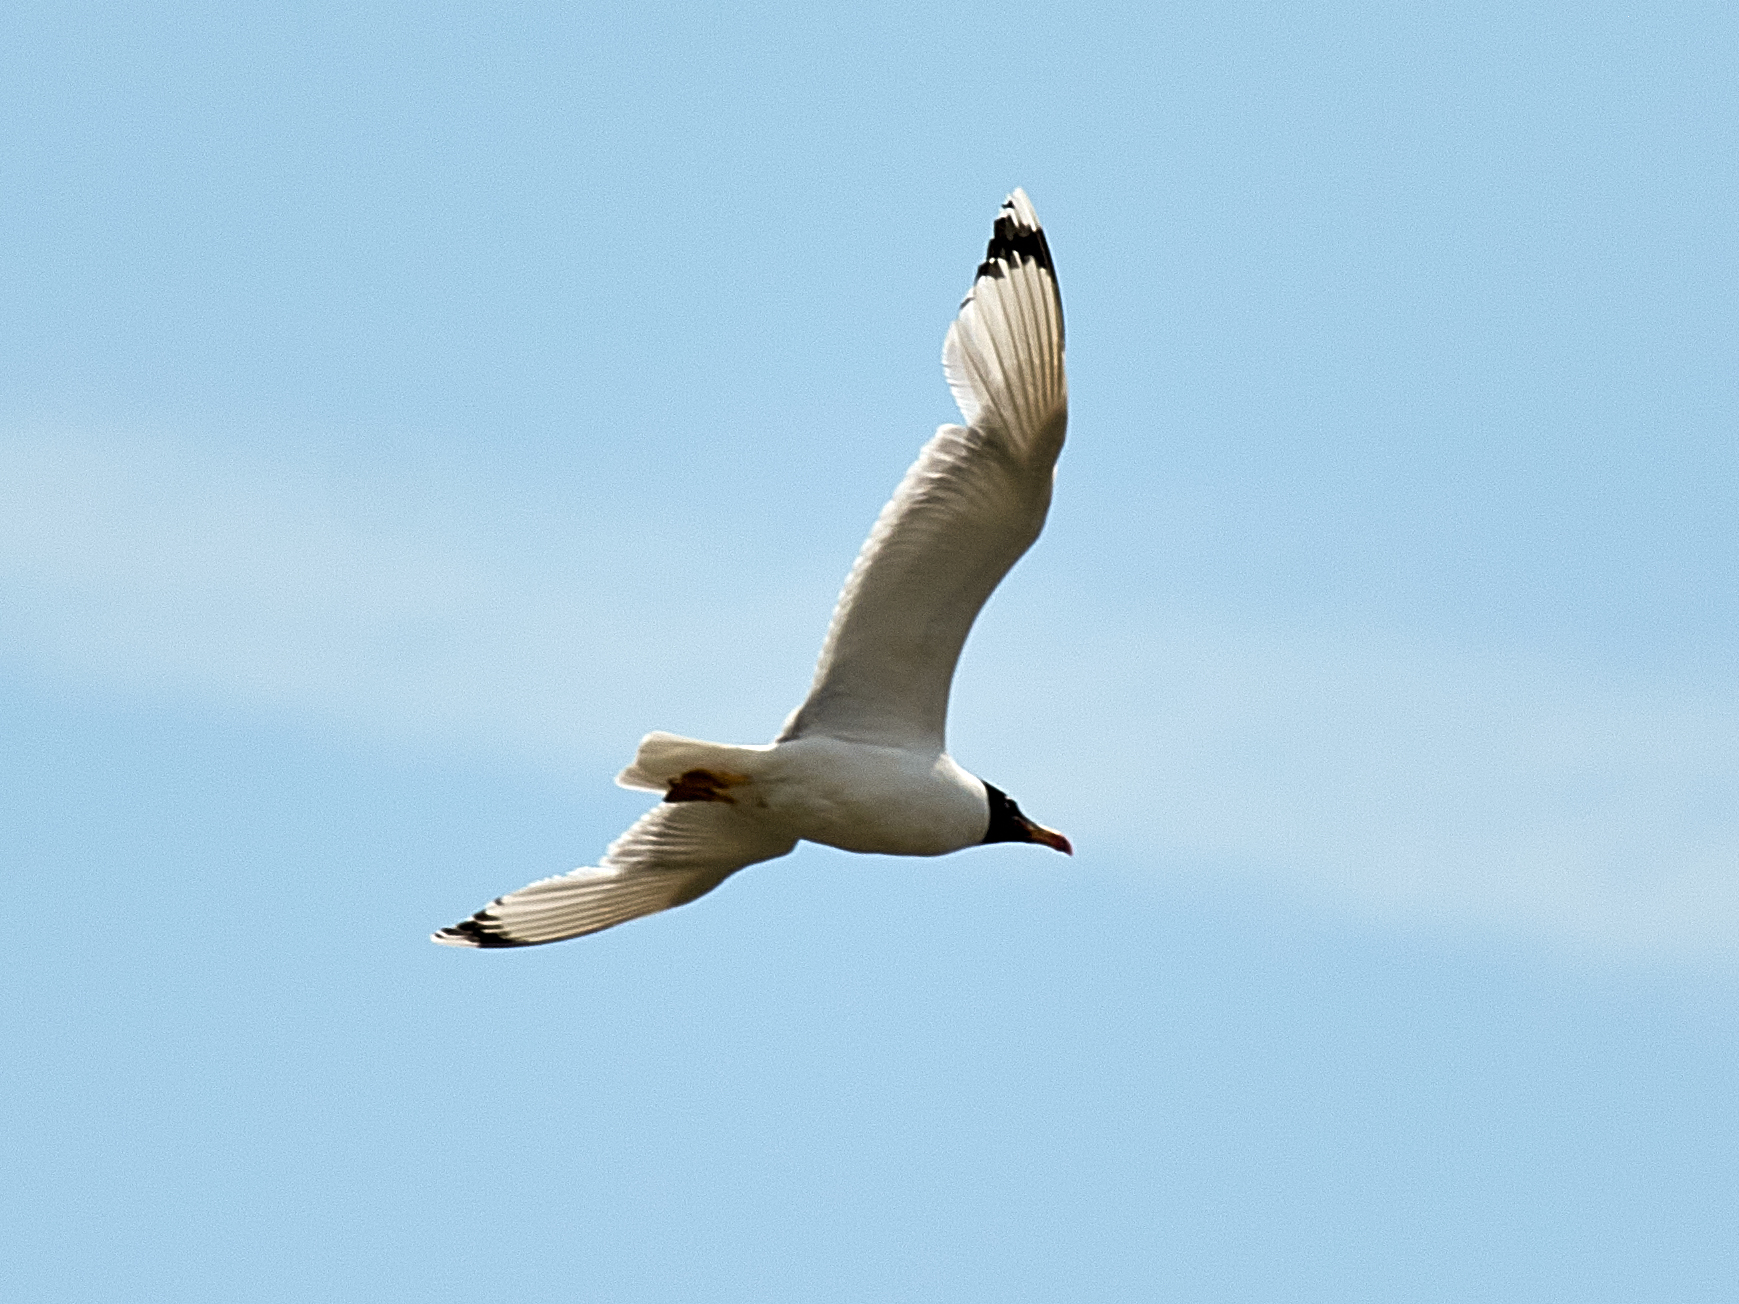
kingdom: Animalia
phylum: Chordata
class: Aves
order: Charadriiformes
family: Laridae
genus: Ichthyaetus
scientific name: Ichthyaetus ichthyaetus
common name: Pallas's gull
